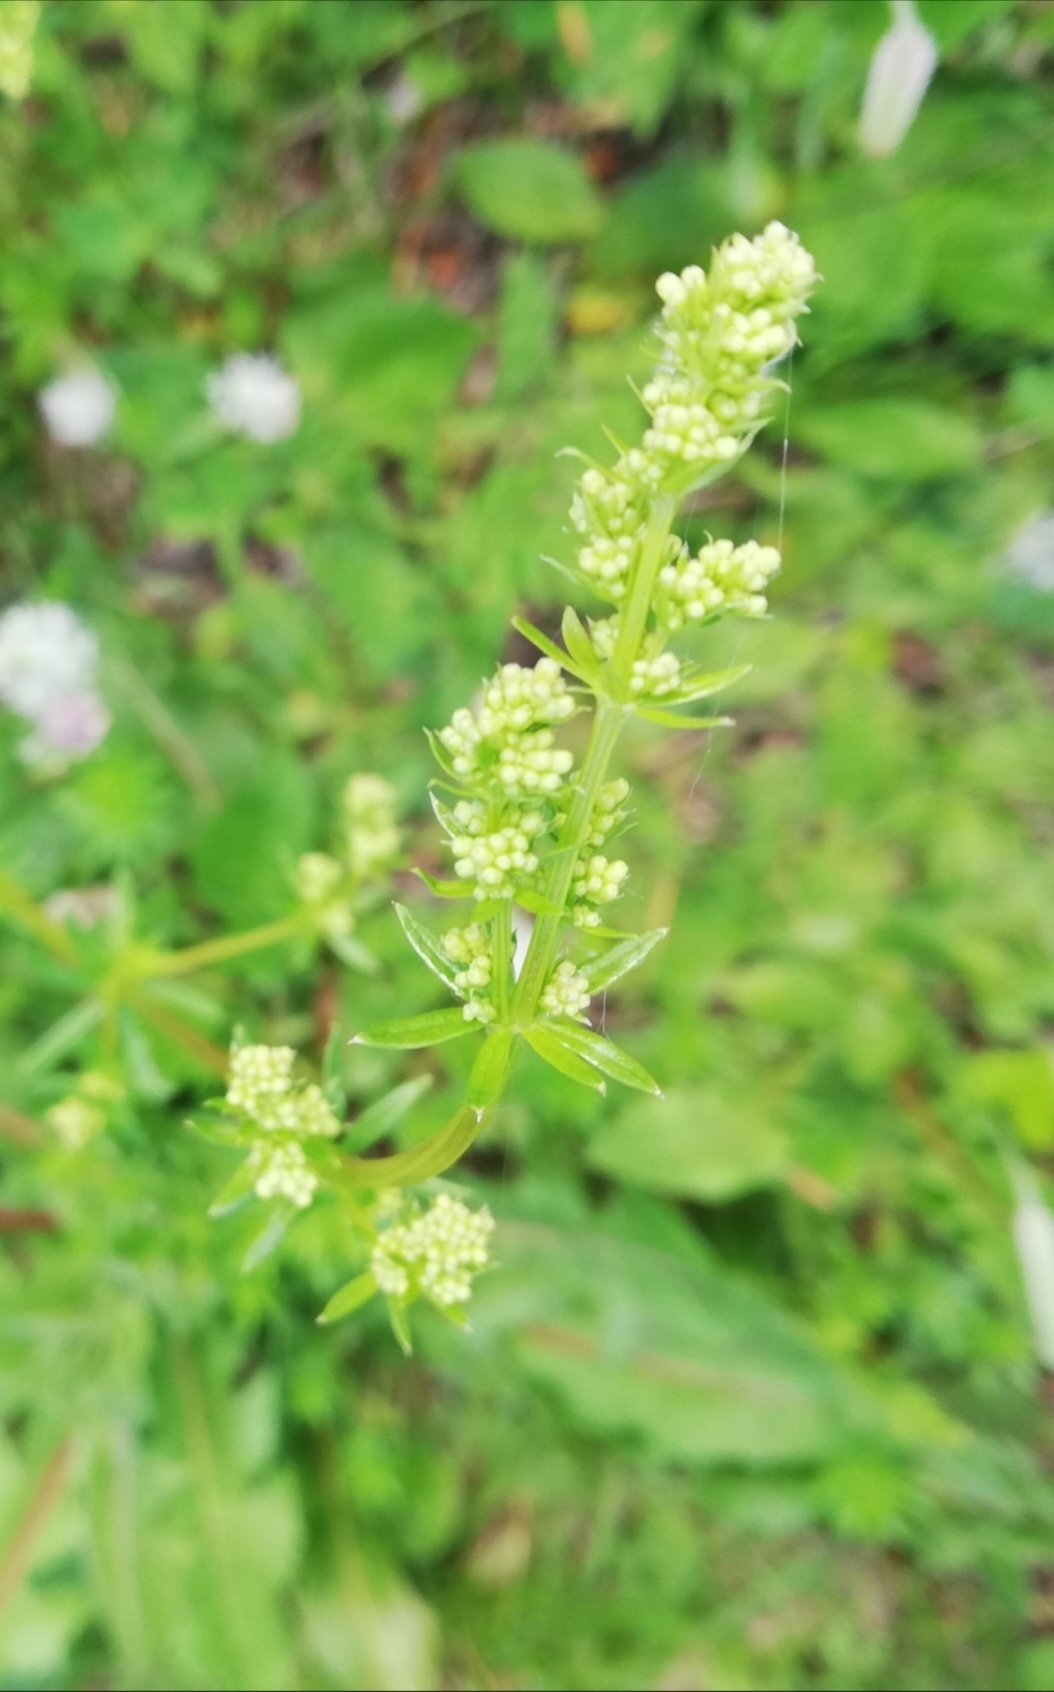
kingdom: Plantae
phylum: Tracheophyta
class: Magnoliopsida
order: Gentianales
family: Rubiaceae
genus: Galium
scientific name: Galium mollugo
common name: Hedge bedstraw
